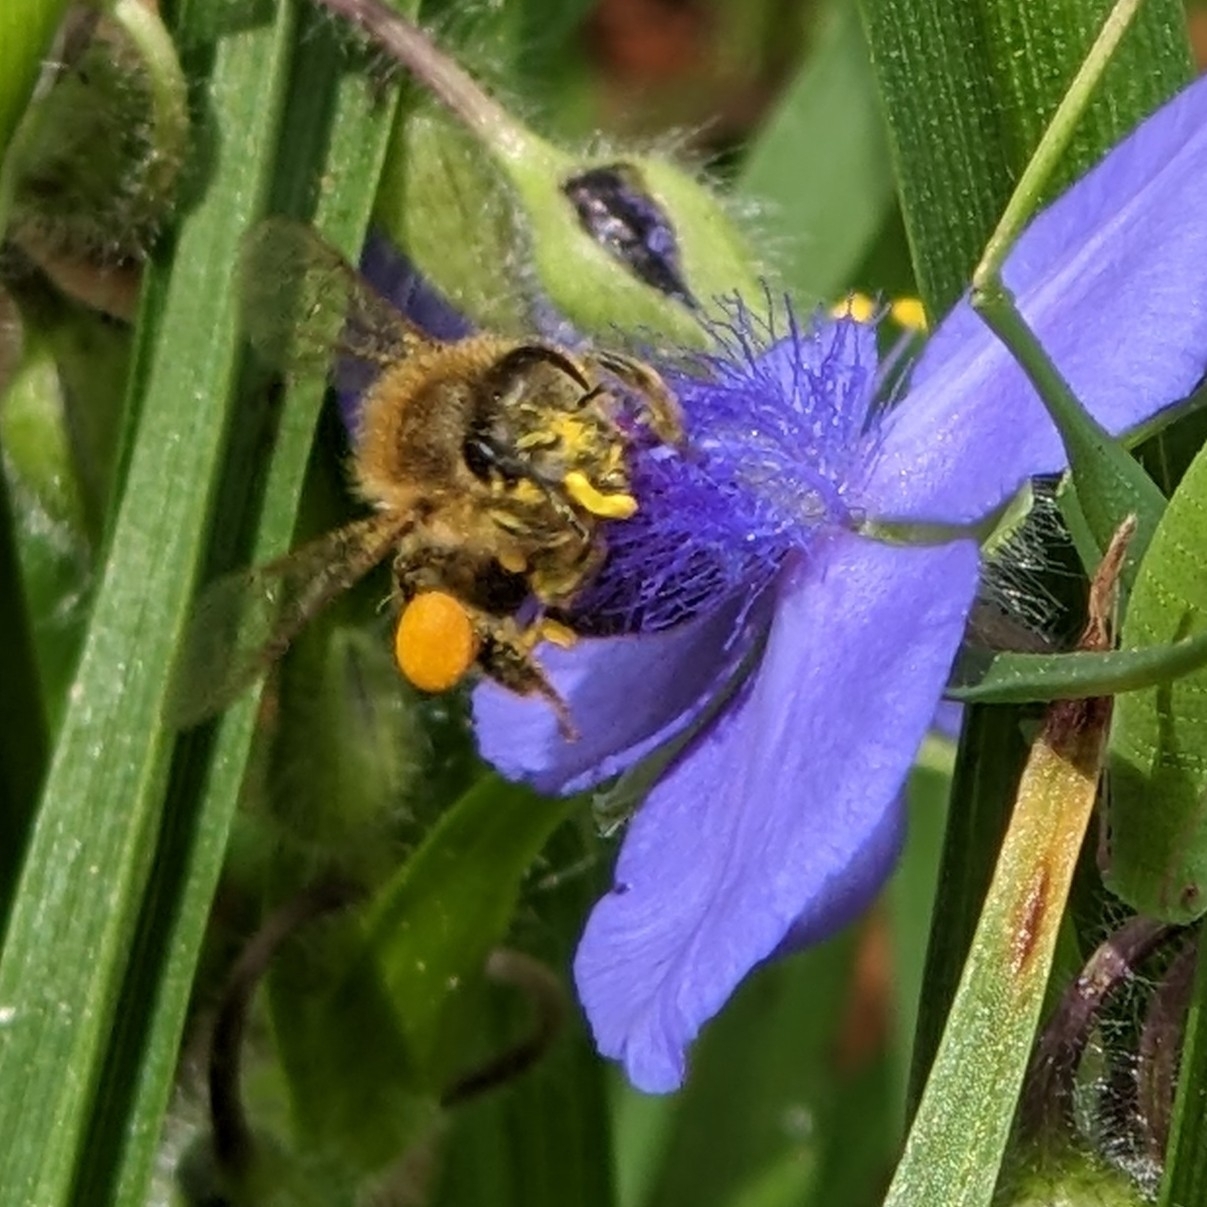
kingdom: Animalia
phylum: Arthropoda
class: Insecta
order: Hymenoptera
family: Apidae
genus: Apis
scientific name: Apis mellifera
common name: Honey bee
